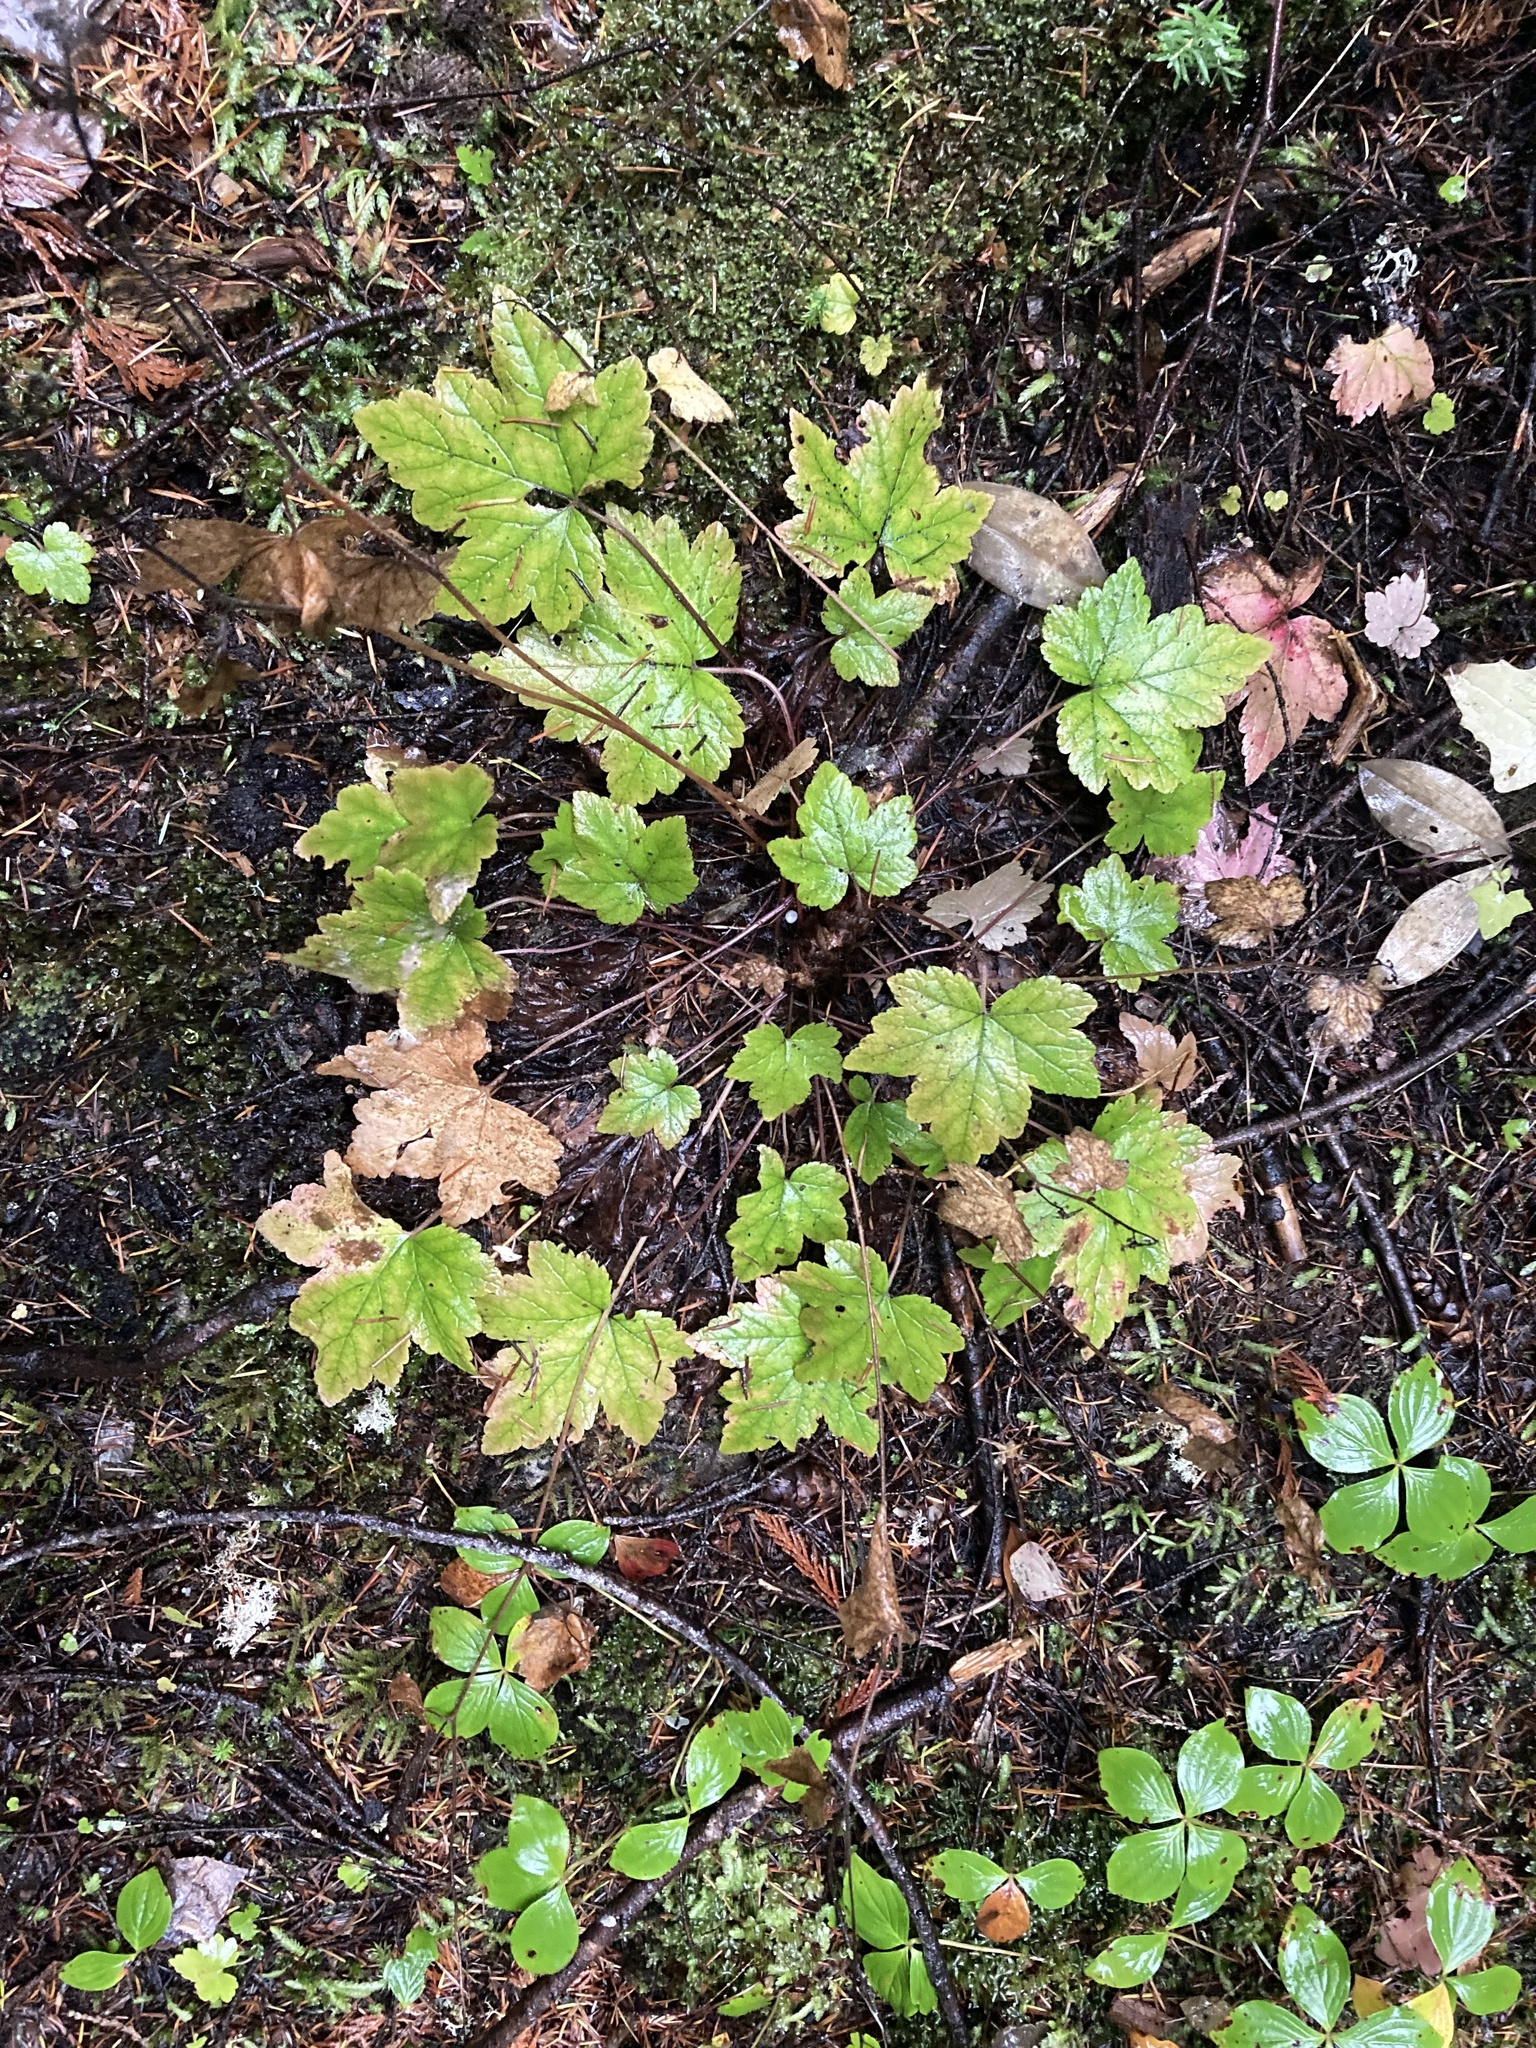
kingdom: Plantae
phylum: Tracheophyta
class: Magnoliopsida
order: Saxifragales
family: Saxifragaceae
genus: Tiarella
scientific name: Tiarella trifoliata
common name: Sugar-scoop
